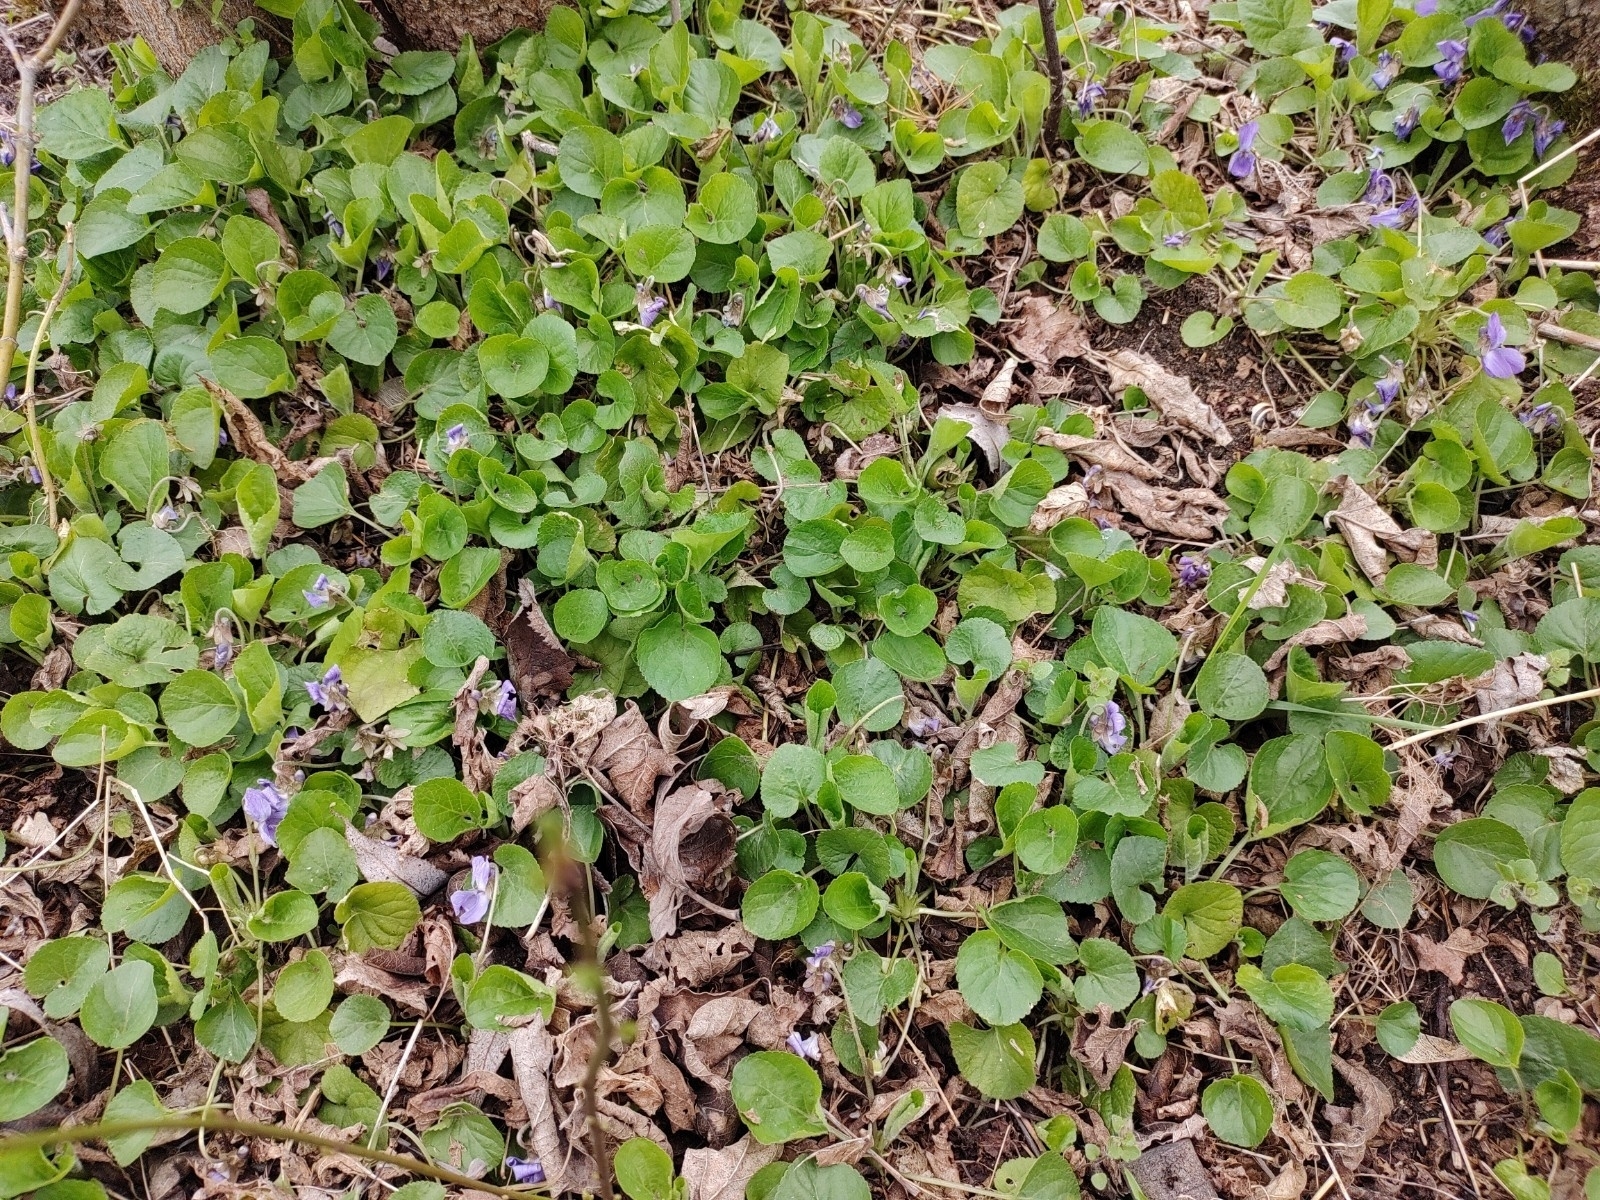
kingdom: Plantae
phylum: Tracheophyta
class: Magnoliopsida
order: Malpighiales
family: Violaceae
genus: Viola
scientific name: Viola odorata
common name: Sweet violet
